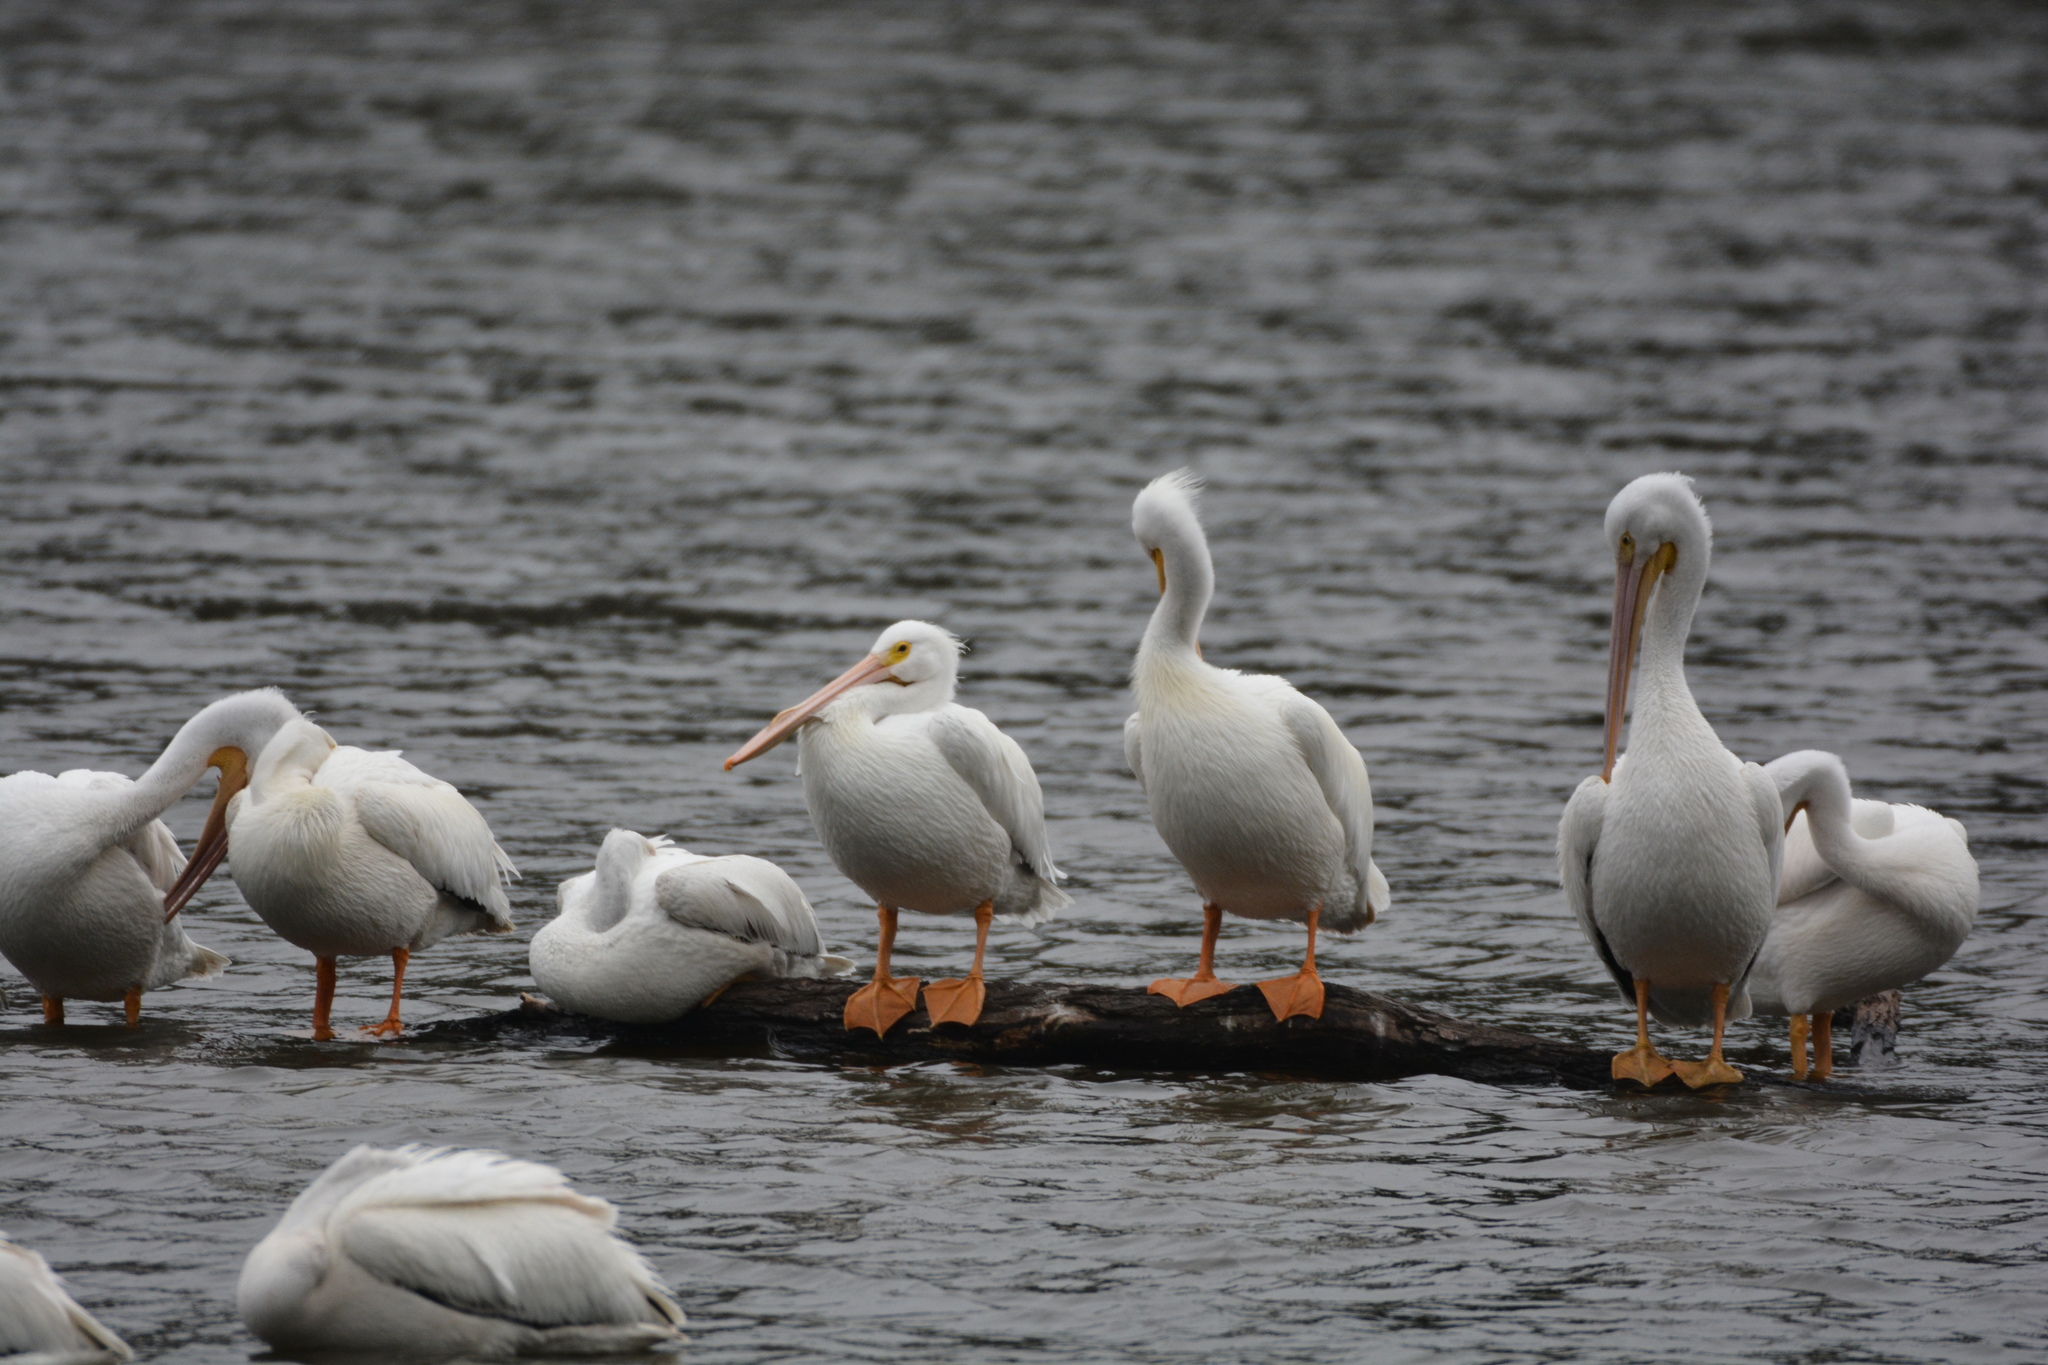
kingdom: Animalia
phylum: Chordata
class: Aves
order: Pelecaniformes
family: Pelecanidae
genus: Pelecanus
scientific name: Pelecanus erythrorhynchos
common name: American white pelican
